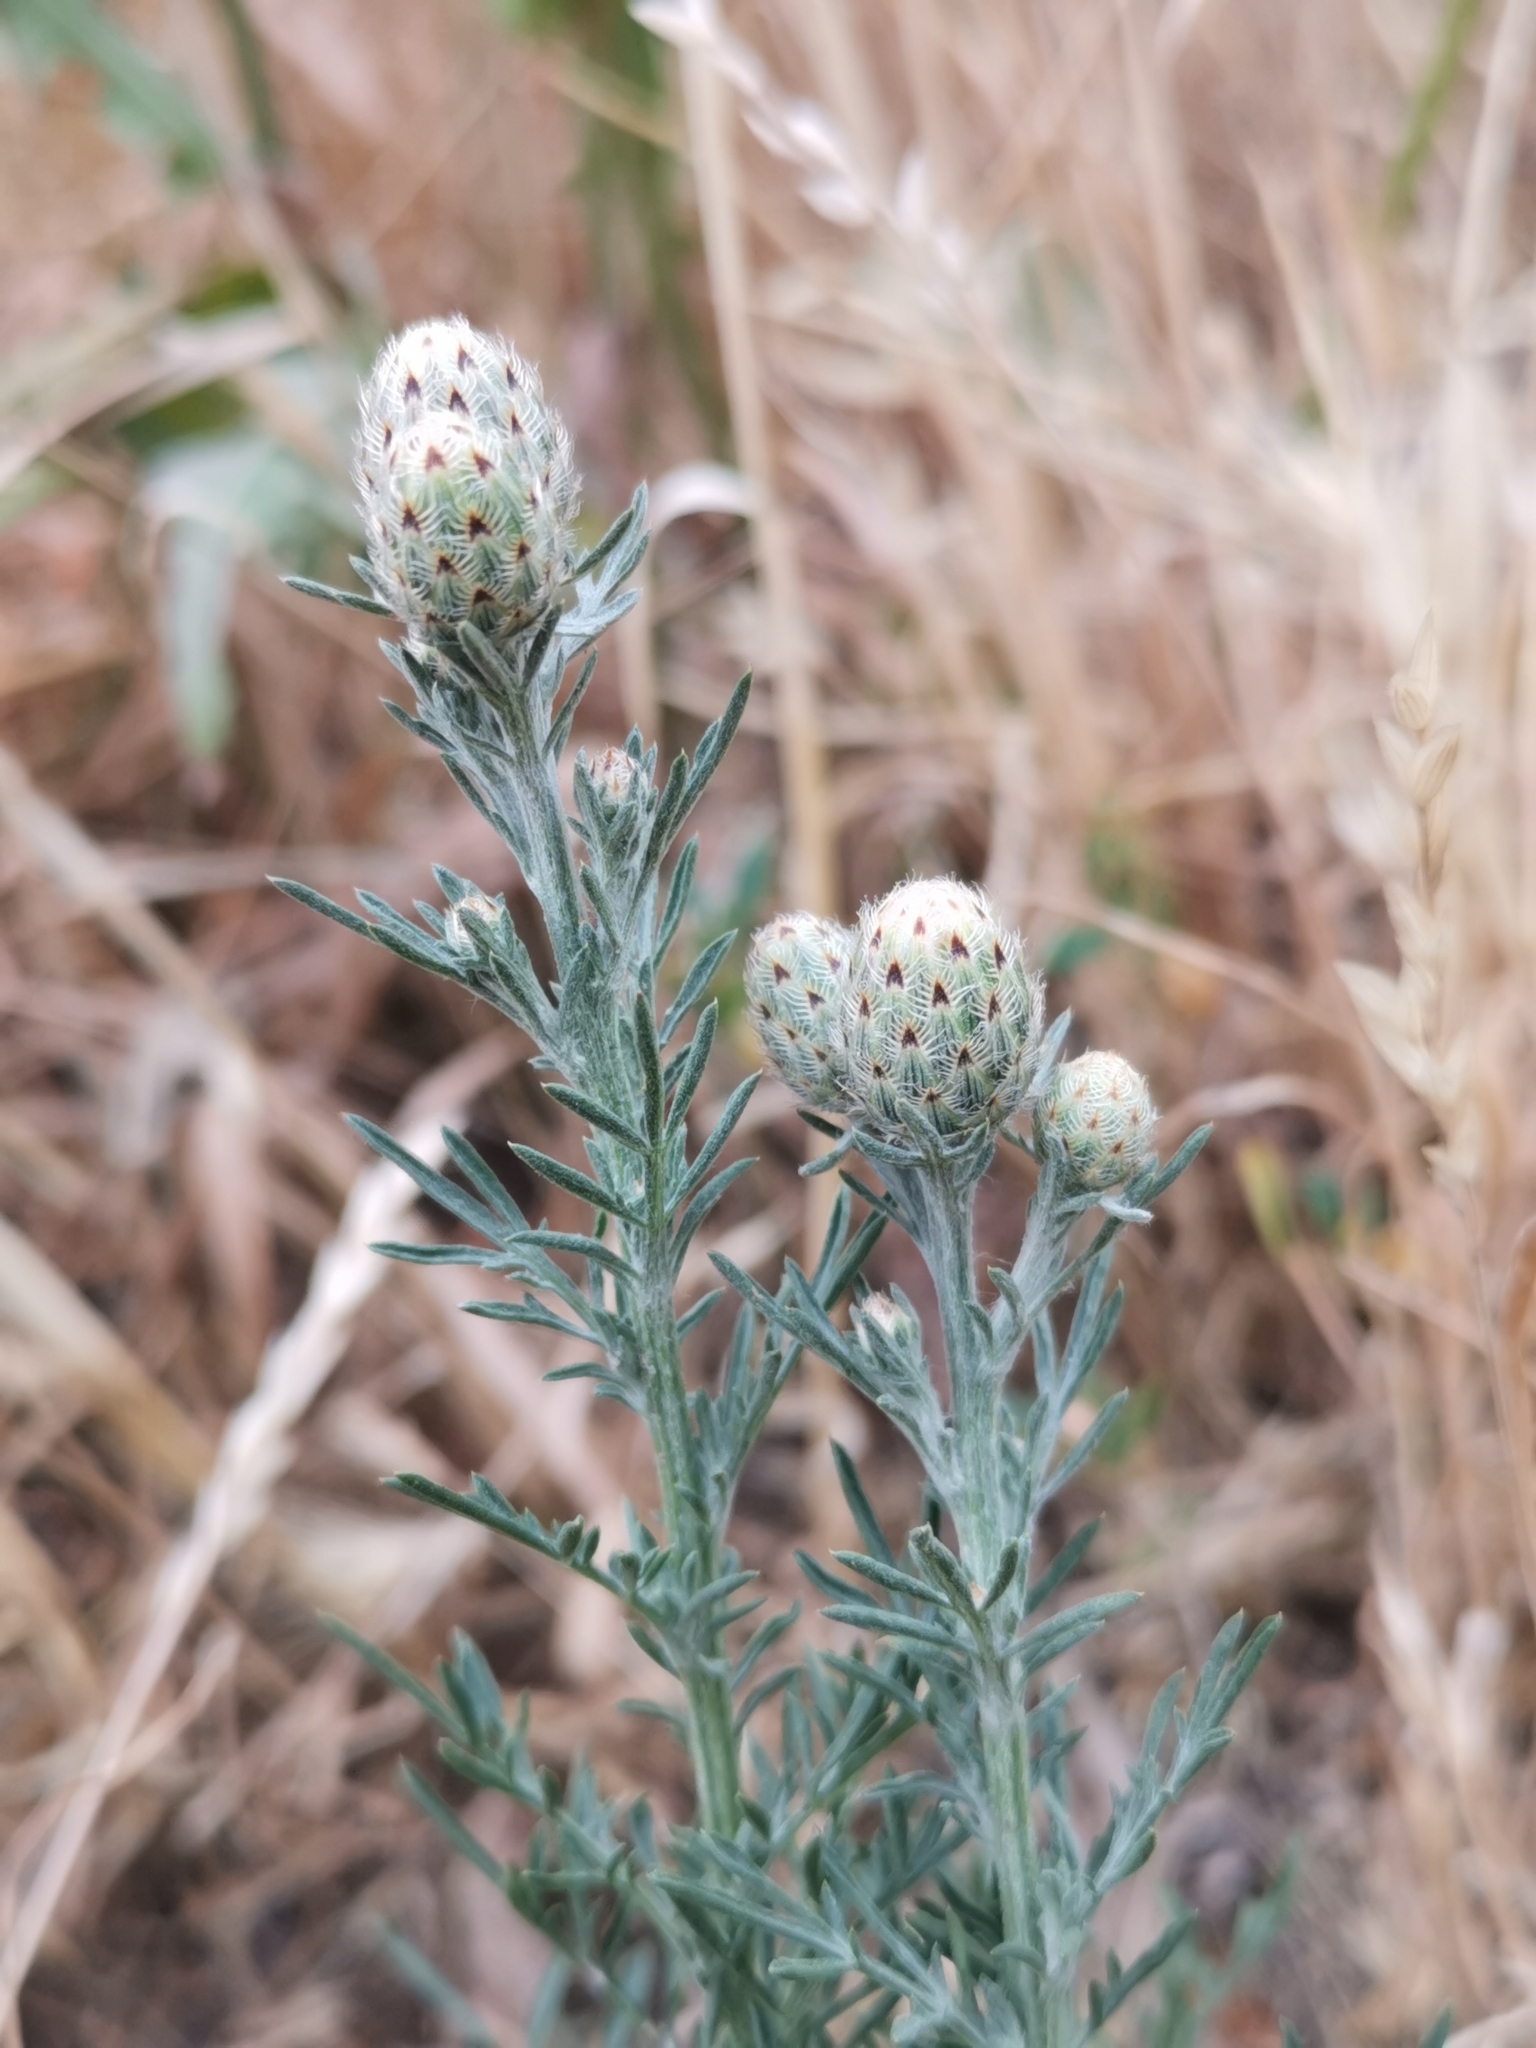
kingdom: Plantae
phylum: Tracheophyta
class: Magnoliopsida
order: Asterales
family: Asteraceae
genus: Centaurea
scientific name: Centaurea stoebe
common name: Spotted knapweed
